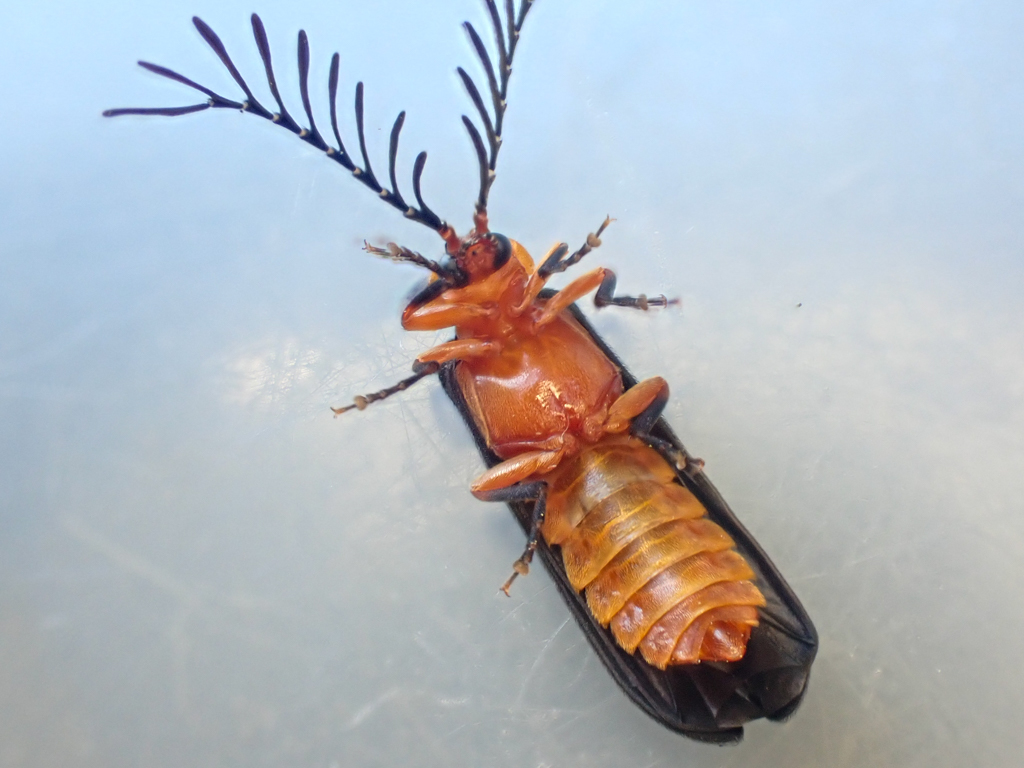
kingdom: Animalia
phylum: Arthropoda
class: Insecta
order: Coleoptera
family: Lampyridae
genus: Pterotus
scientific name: Pterotus obscuripennis
